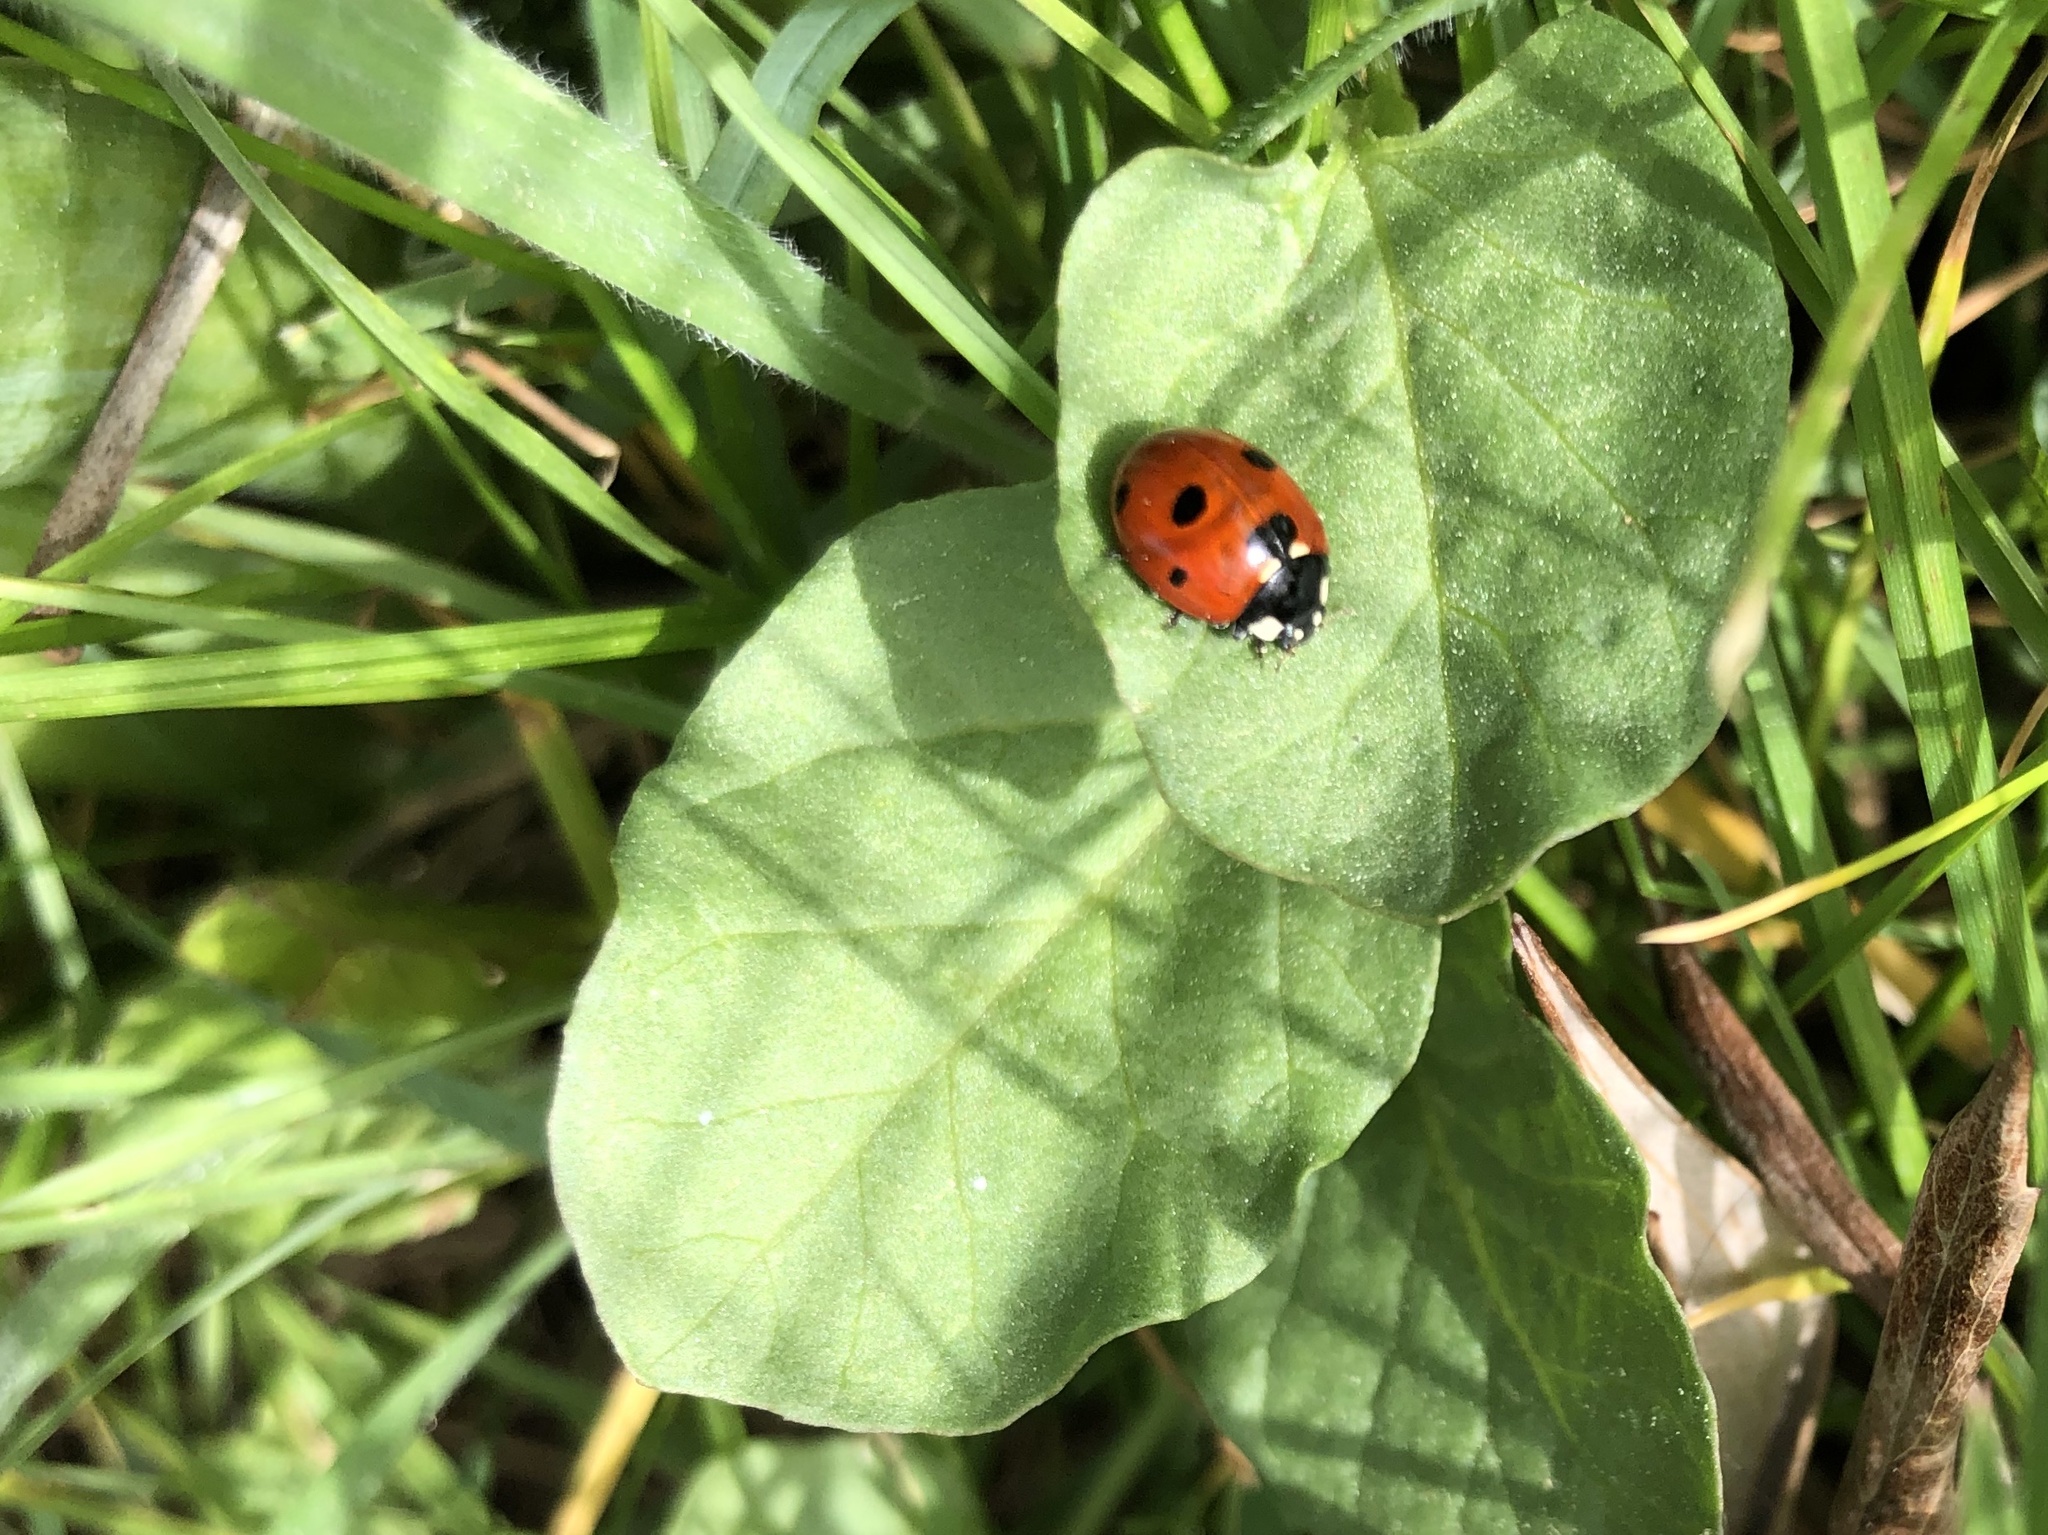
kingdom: Animalia
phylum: Arthropoda
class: Insecta
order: Coleoptera
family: Coccinellidae
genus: Coccinella
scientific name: Coccinella septempunctata
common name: Sevenspotted lady beetle
